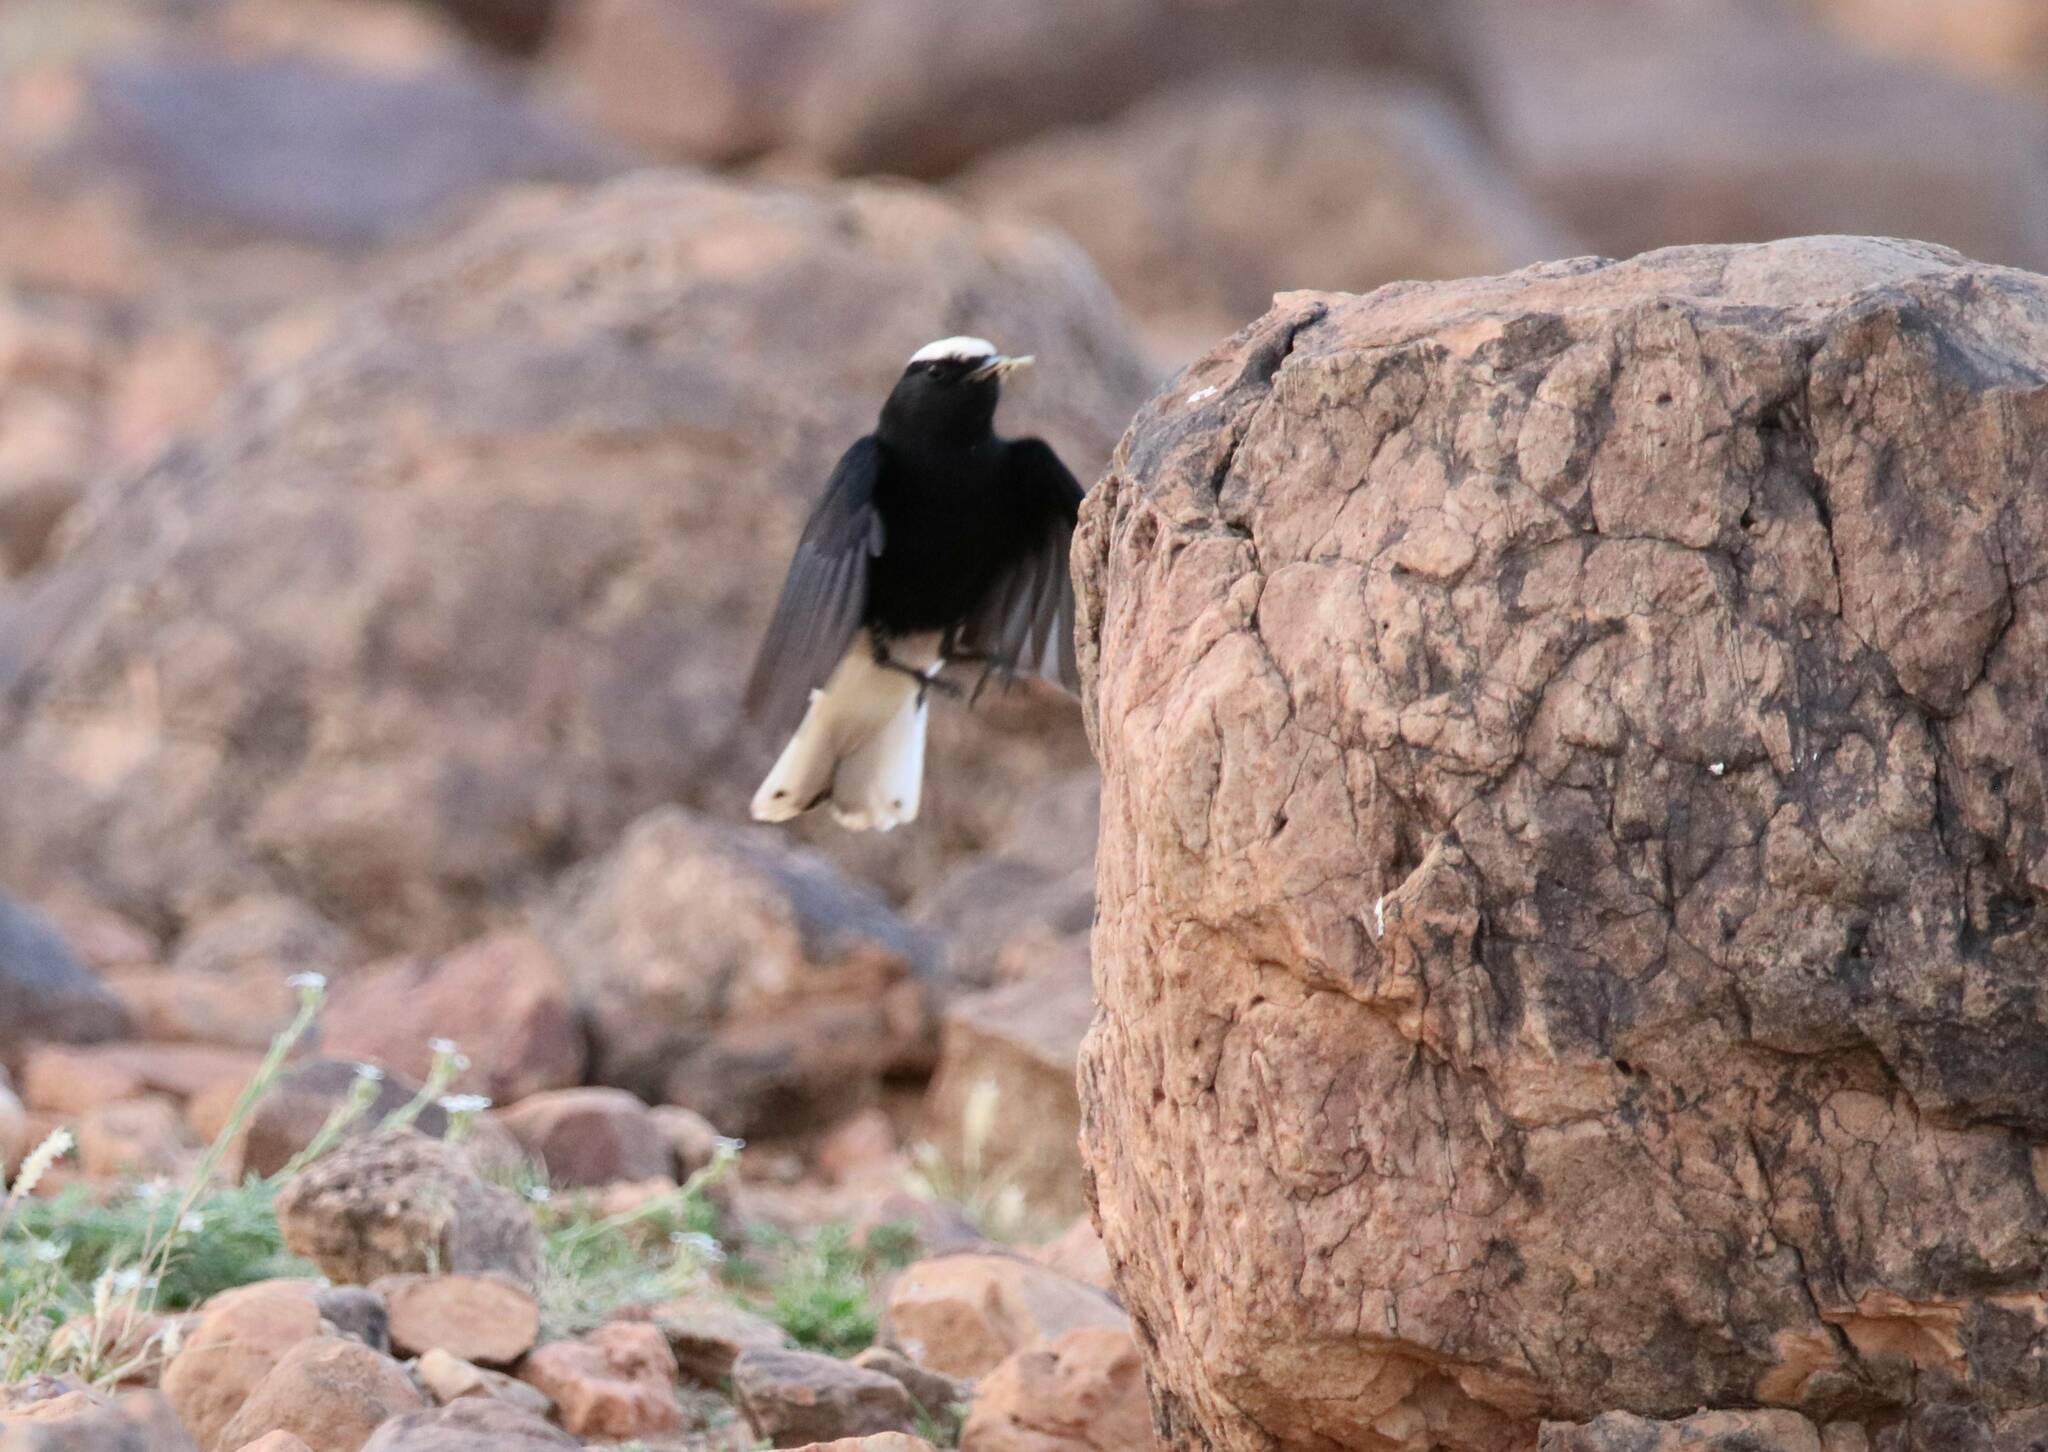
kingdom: Animalia
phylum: Chordata
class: Aves
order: Passeriformes
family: Muscicapidae
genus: Oenanthe
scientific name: Oenanthe leucopyga
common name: White-crowned wheatear
